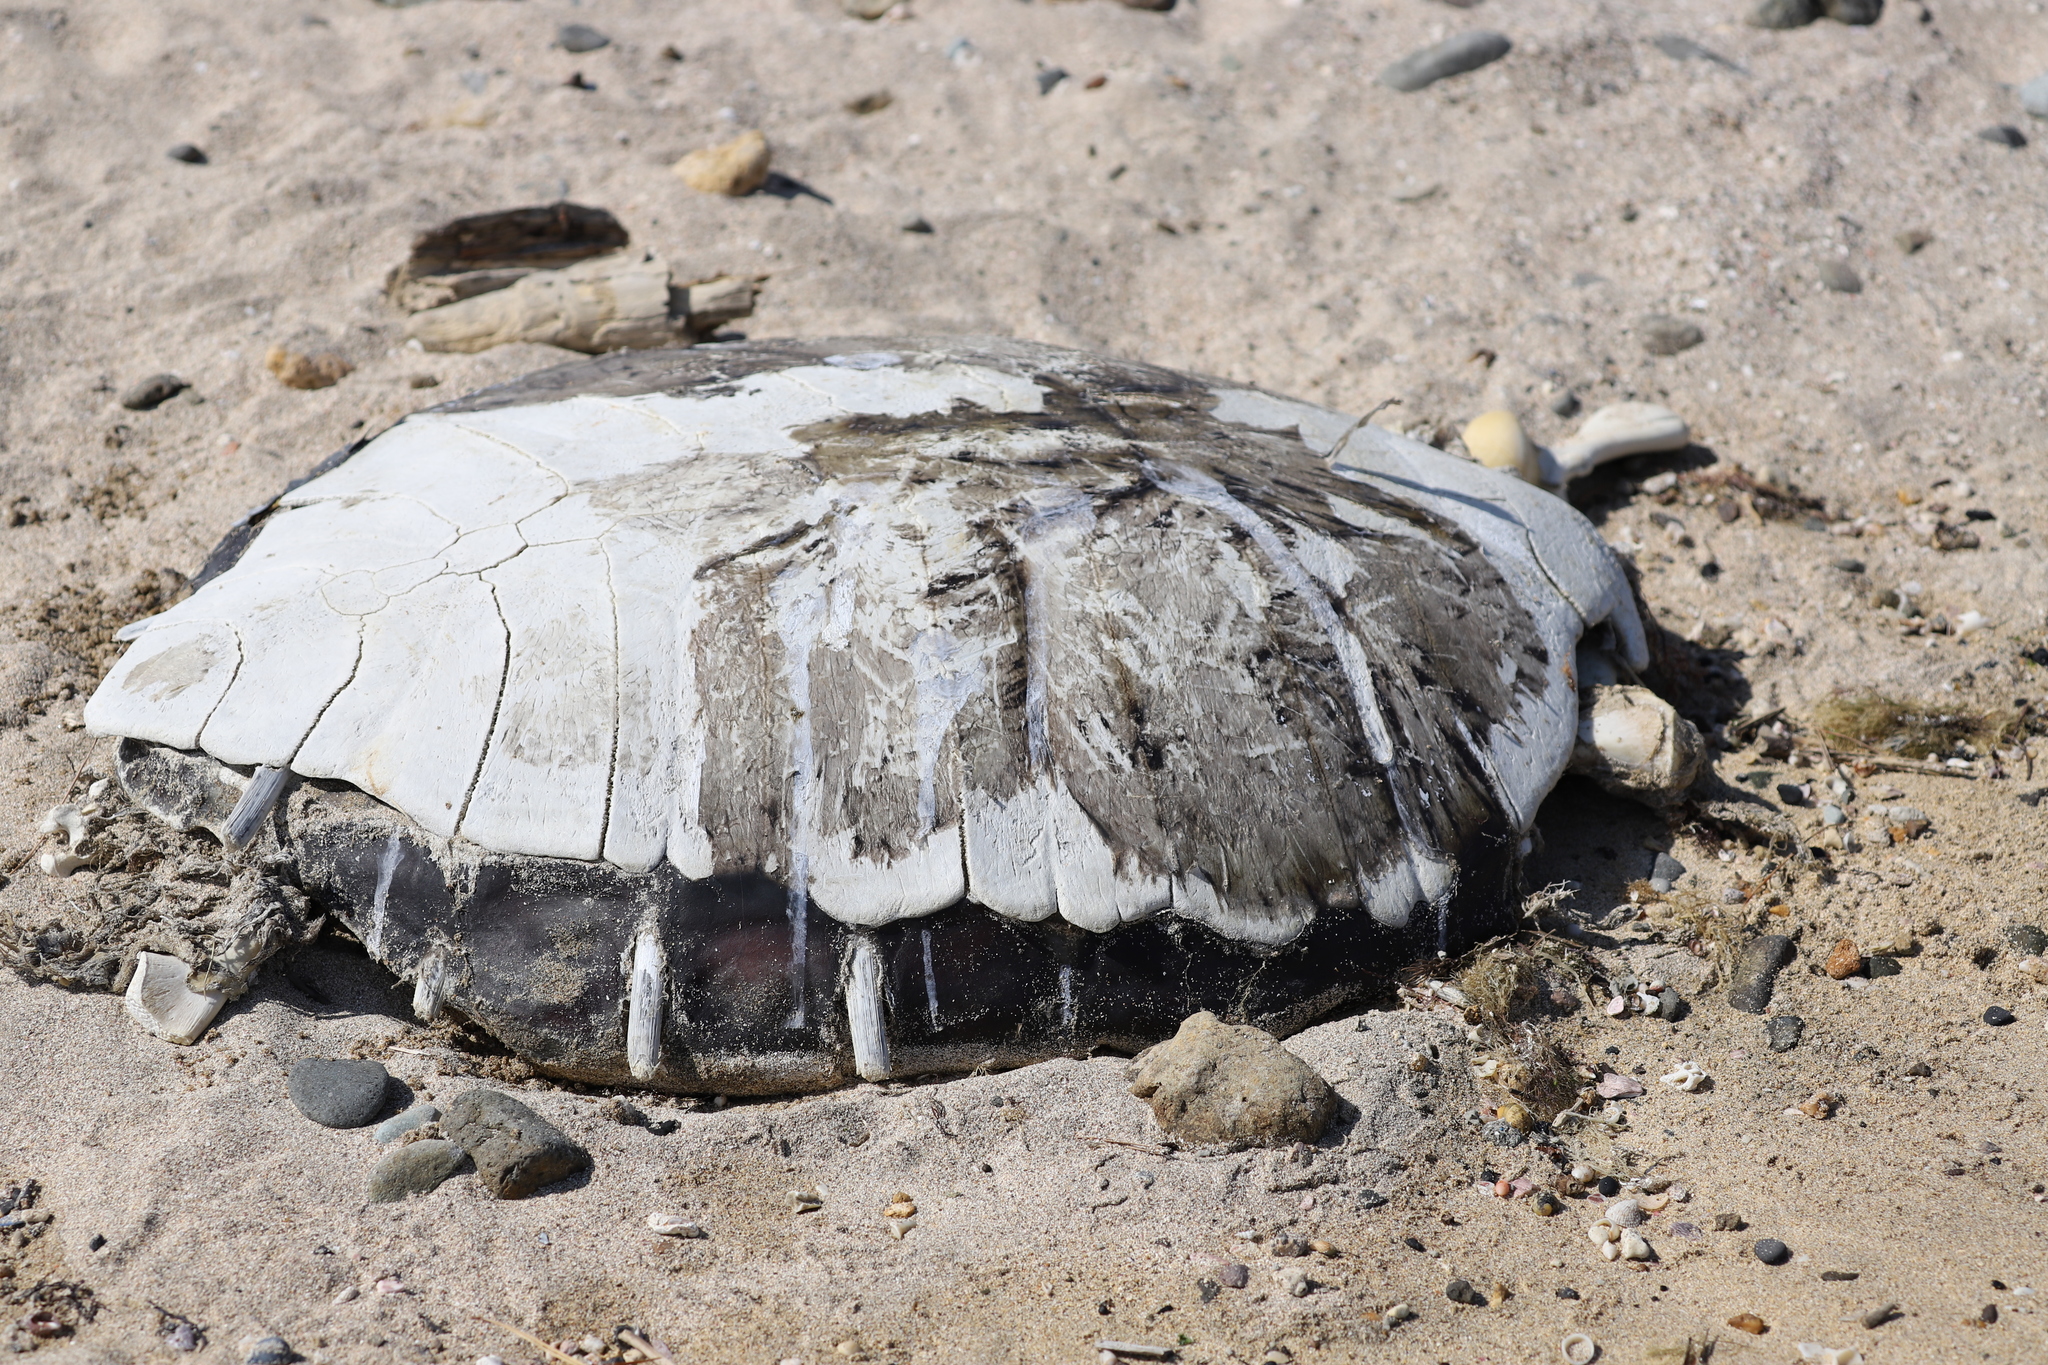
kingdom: Animalia
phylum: Chordata
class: Testudines
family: Cheloniidae
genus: Chelonia
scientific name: Chelonia mydas
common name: Green turtle
